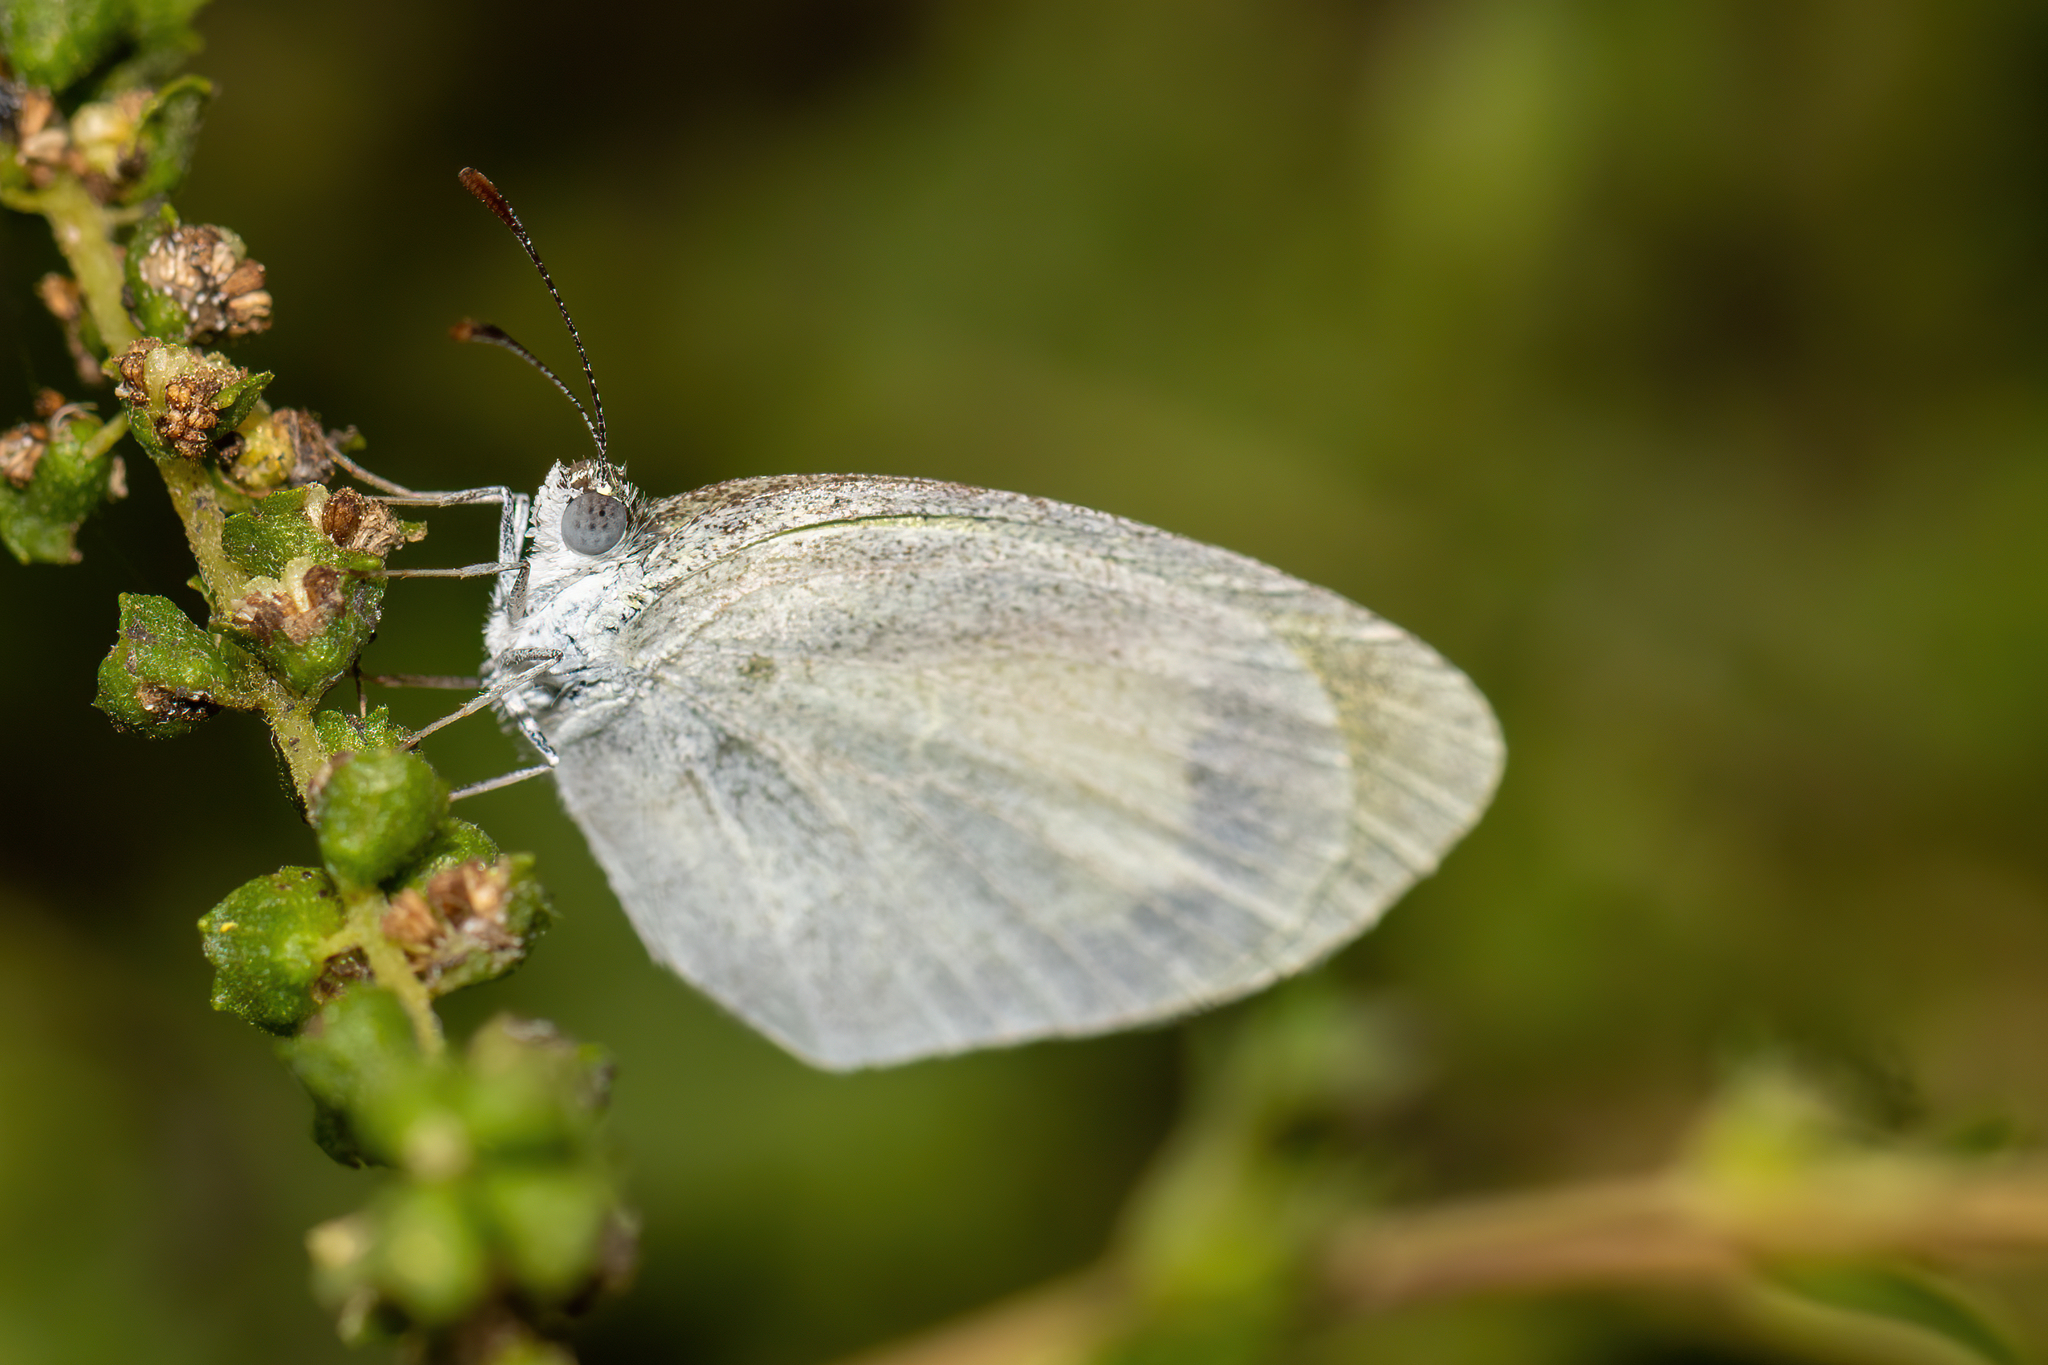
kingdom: Animalia
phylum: Arthropoda
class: Insecta
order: Lepidoptera
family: Pieridae
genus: Eurema
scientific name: Eurema daira
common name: Barred sulphur
